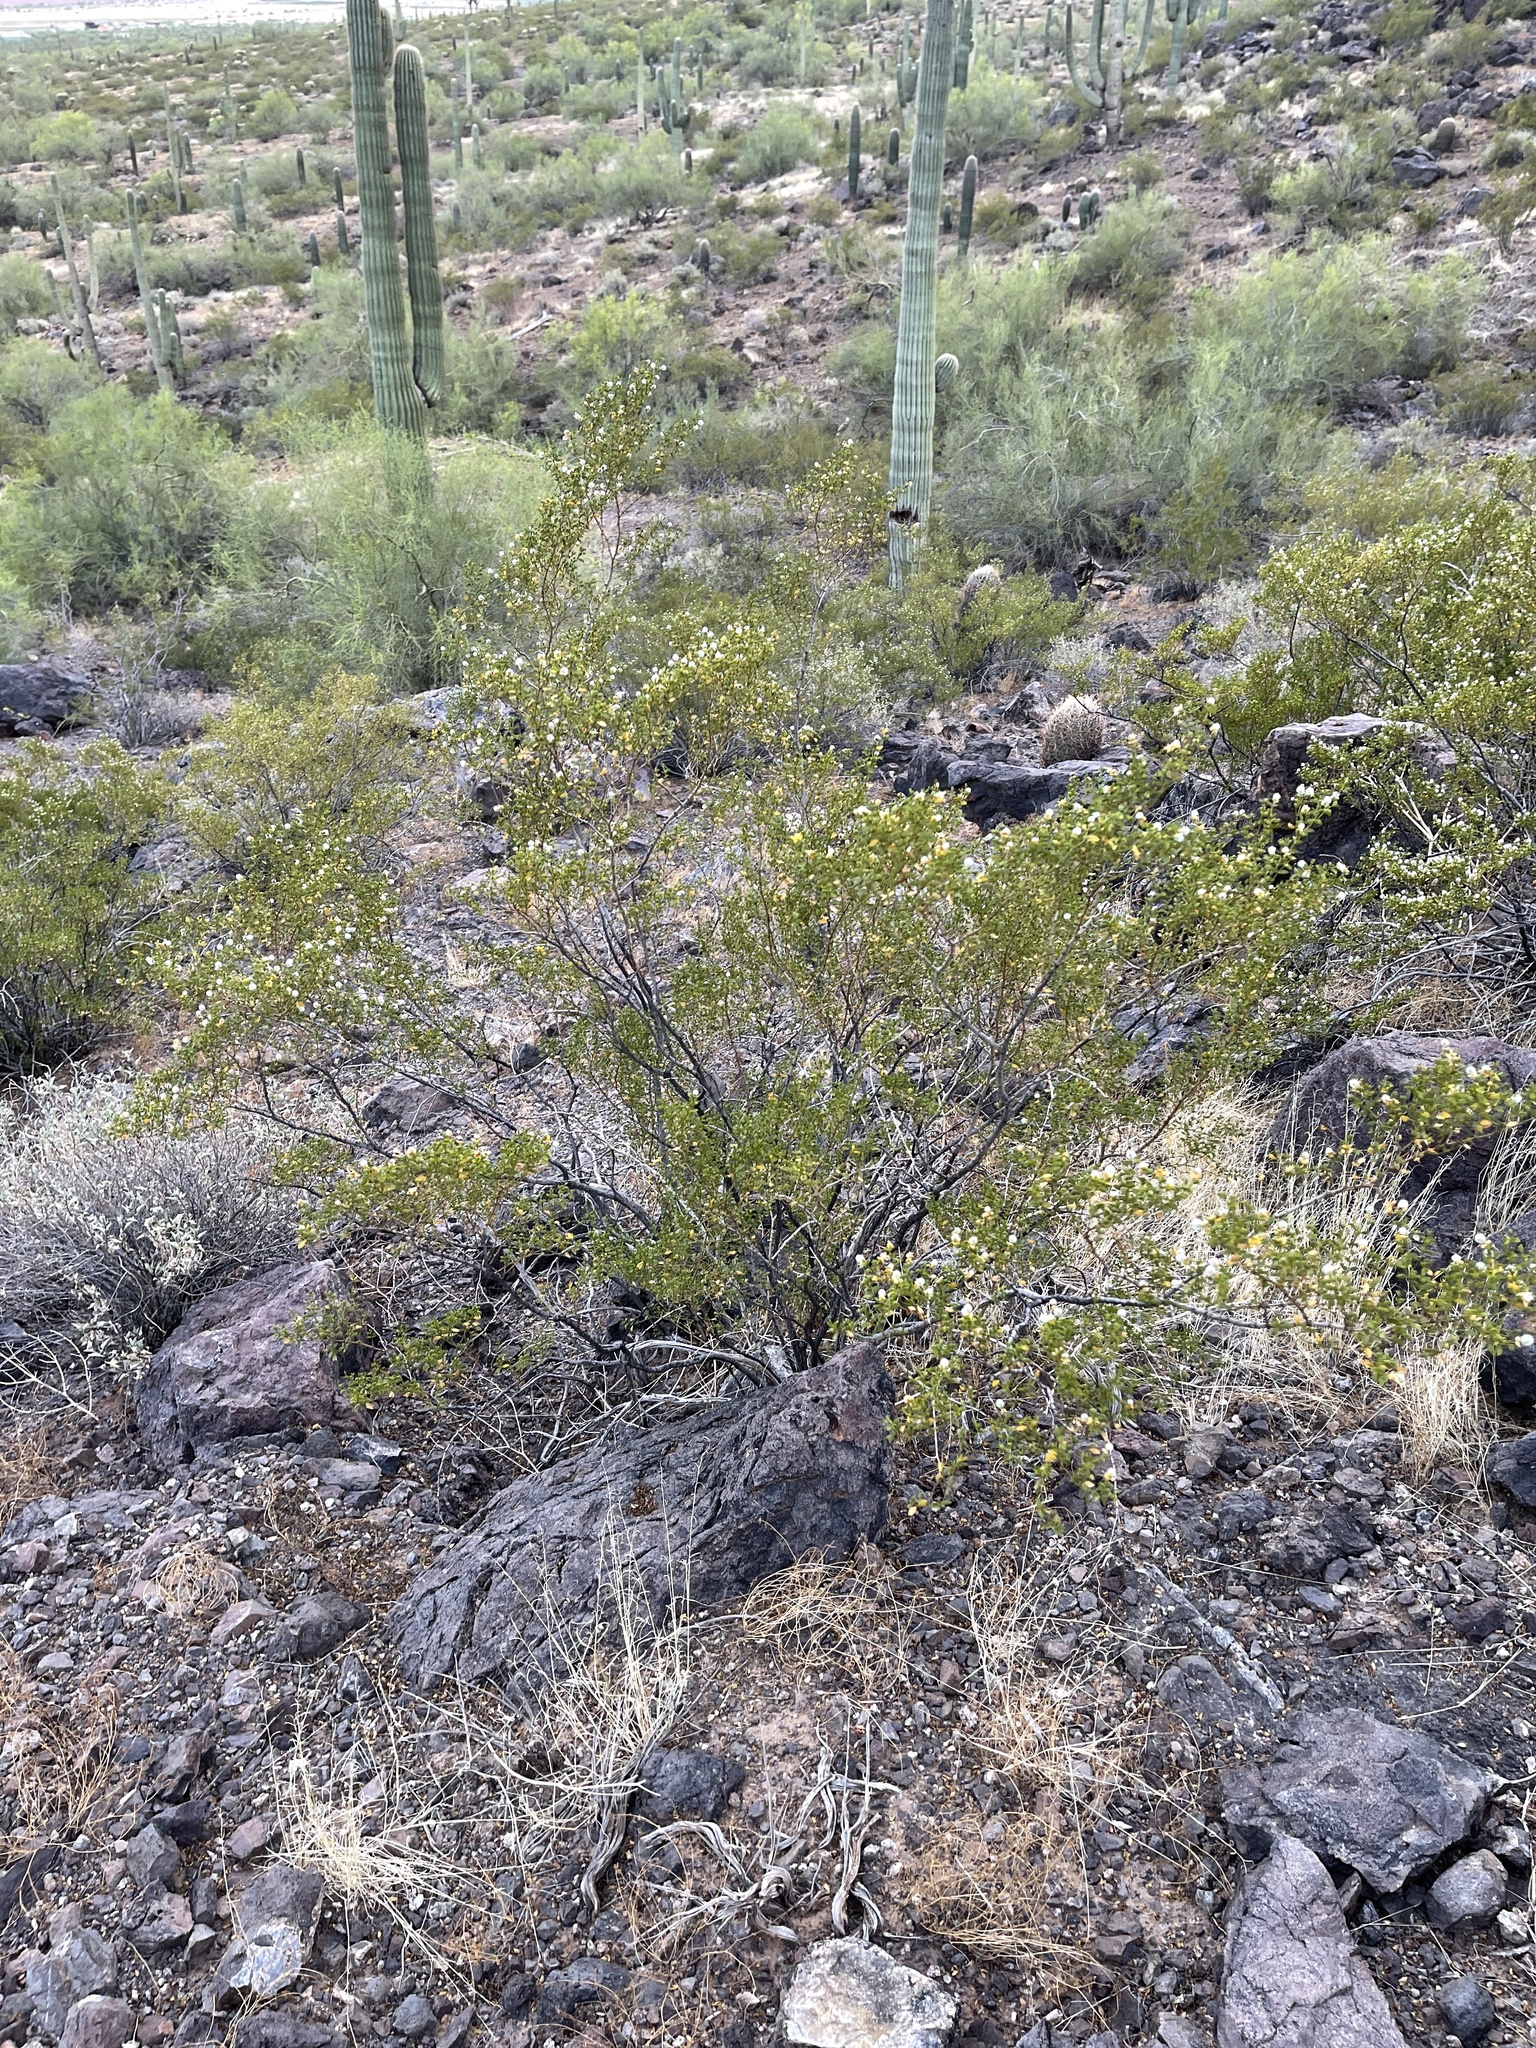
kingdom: Plantae
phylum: Tracheophyta
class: Magnoliopsida
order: Zygophyllales
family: Zygophyllaceae
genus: Larrea
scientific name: Larrea tridentata
